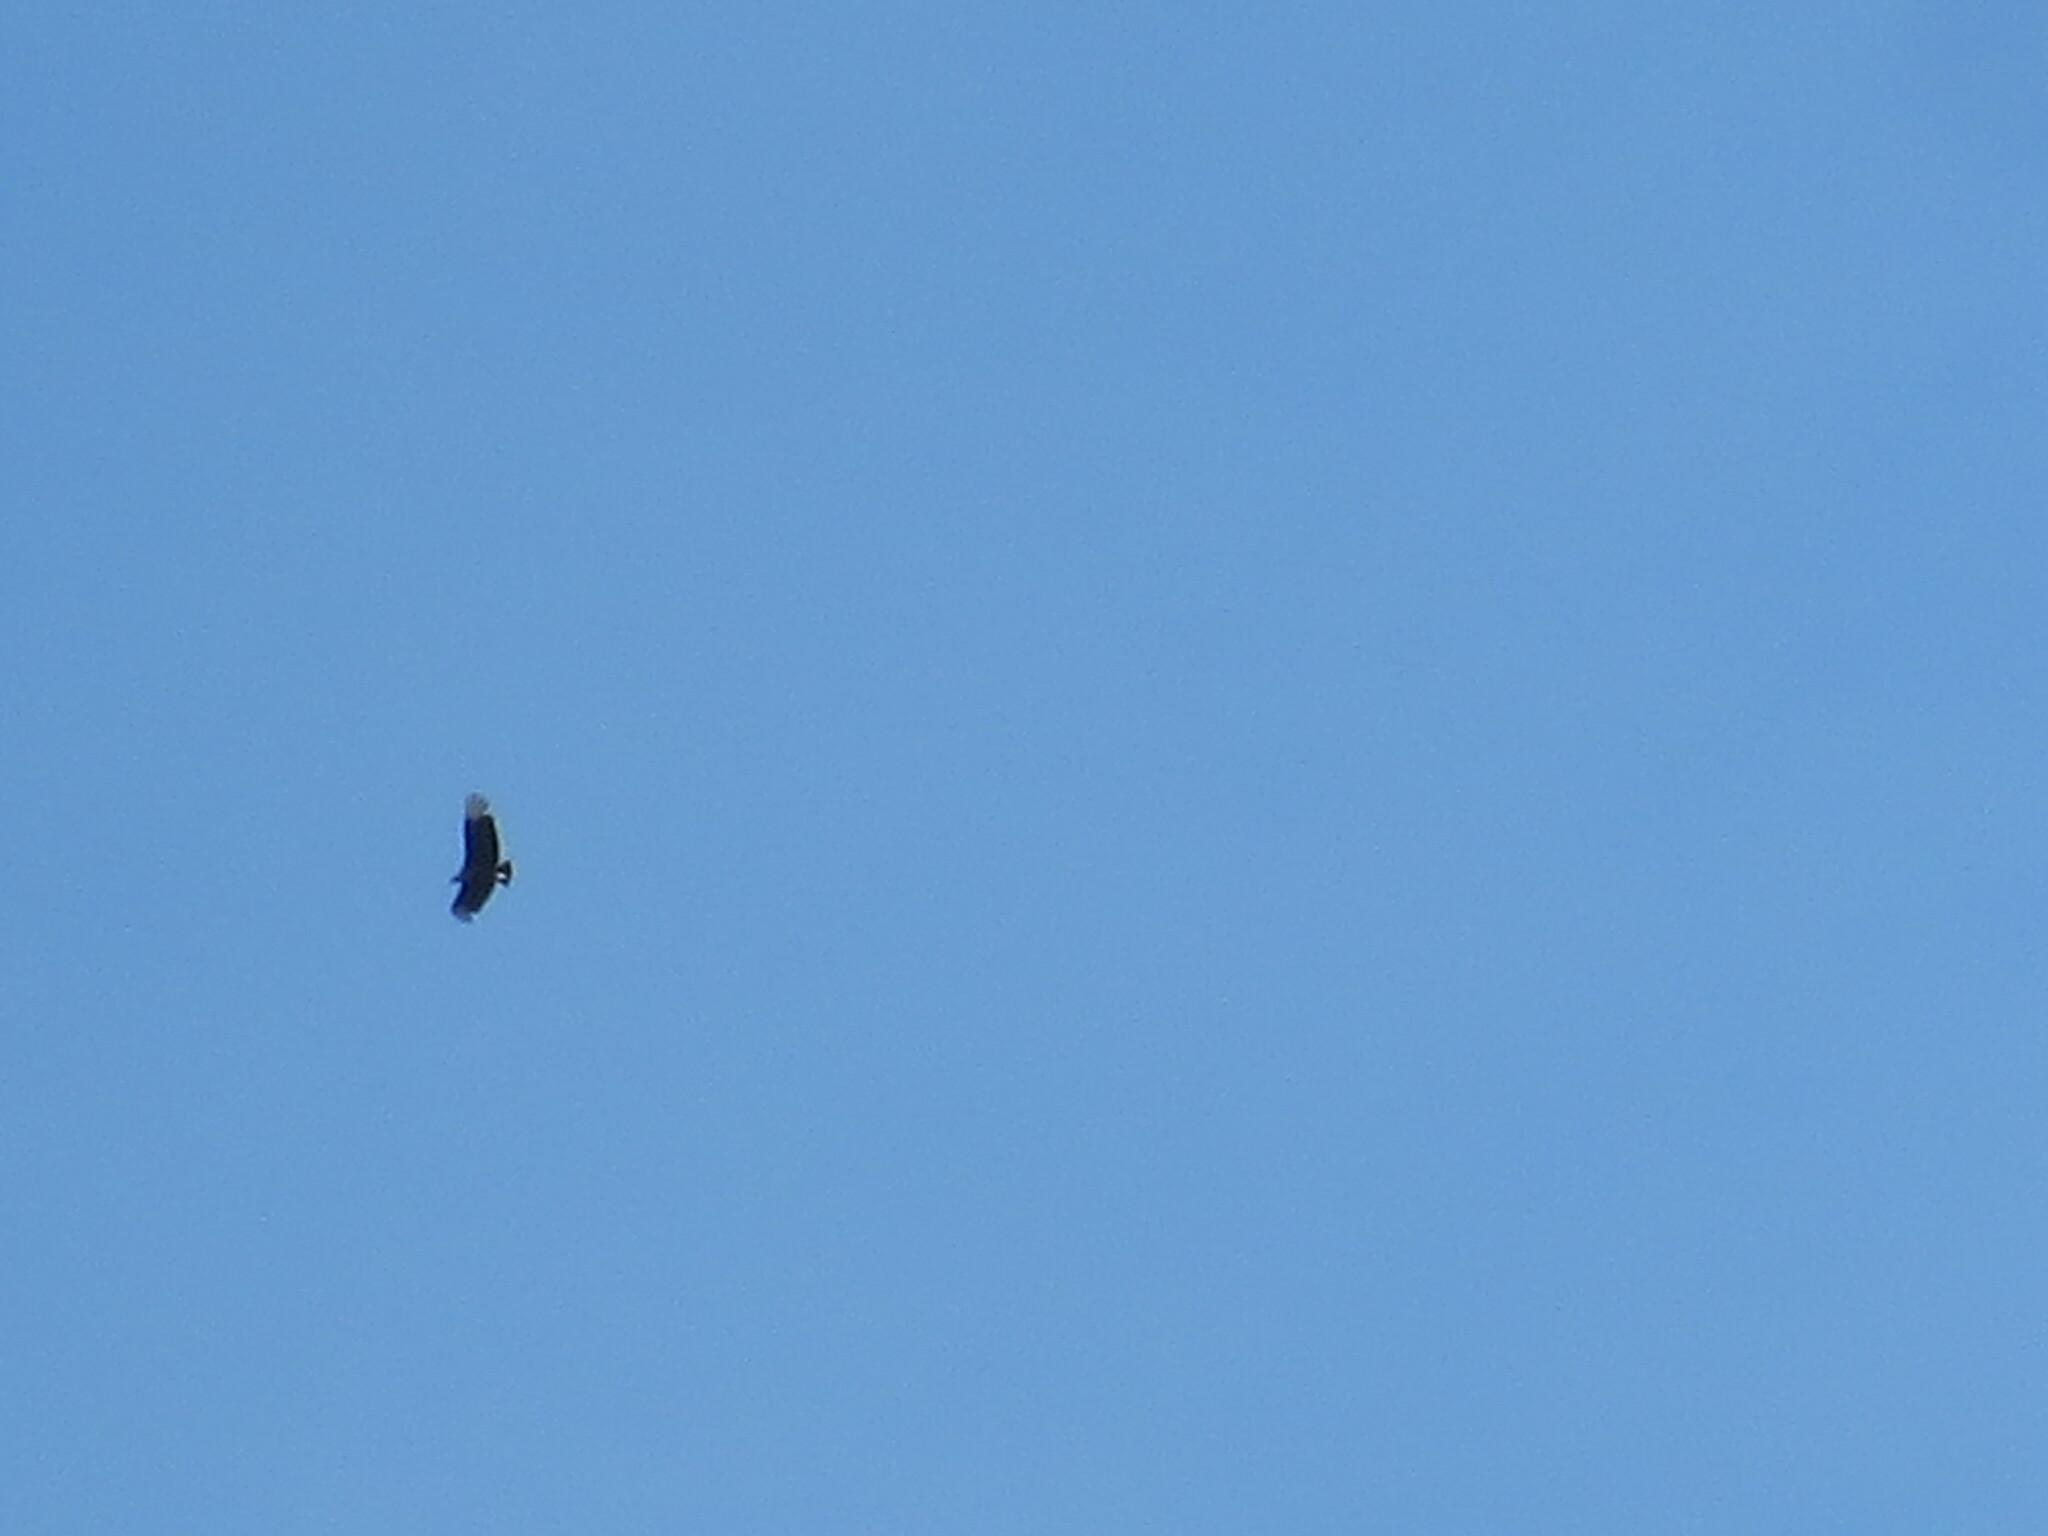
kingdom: Animalia
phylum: Chordata
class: Aves
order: Accipitriformes
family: Cathartidae
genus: Coragyps
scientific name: Coragyps atratus
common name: Black vulture
